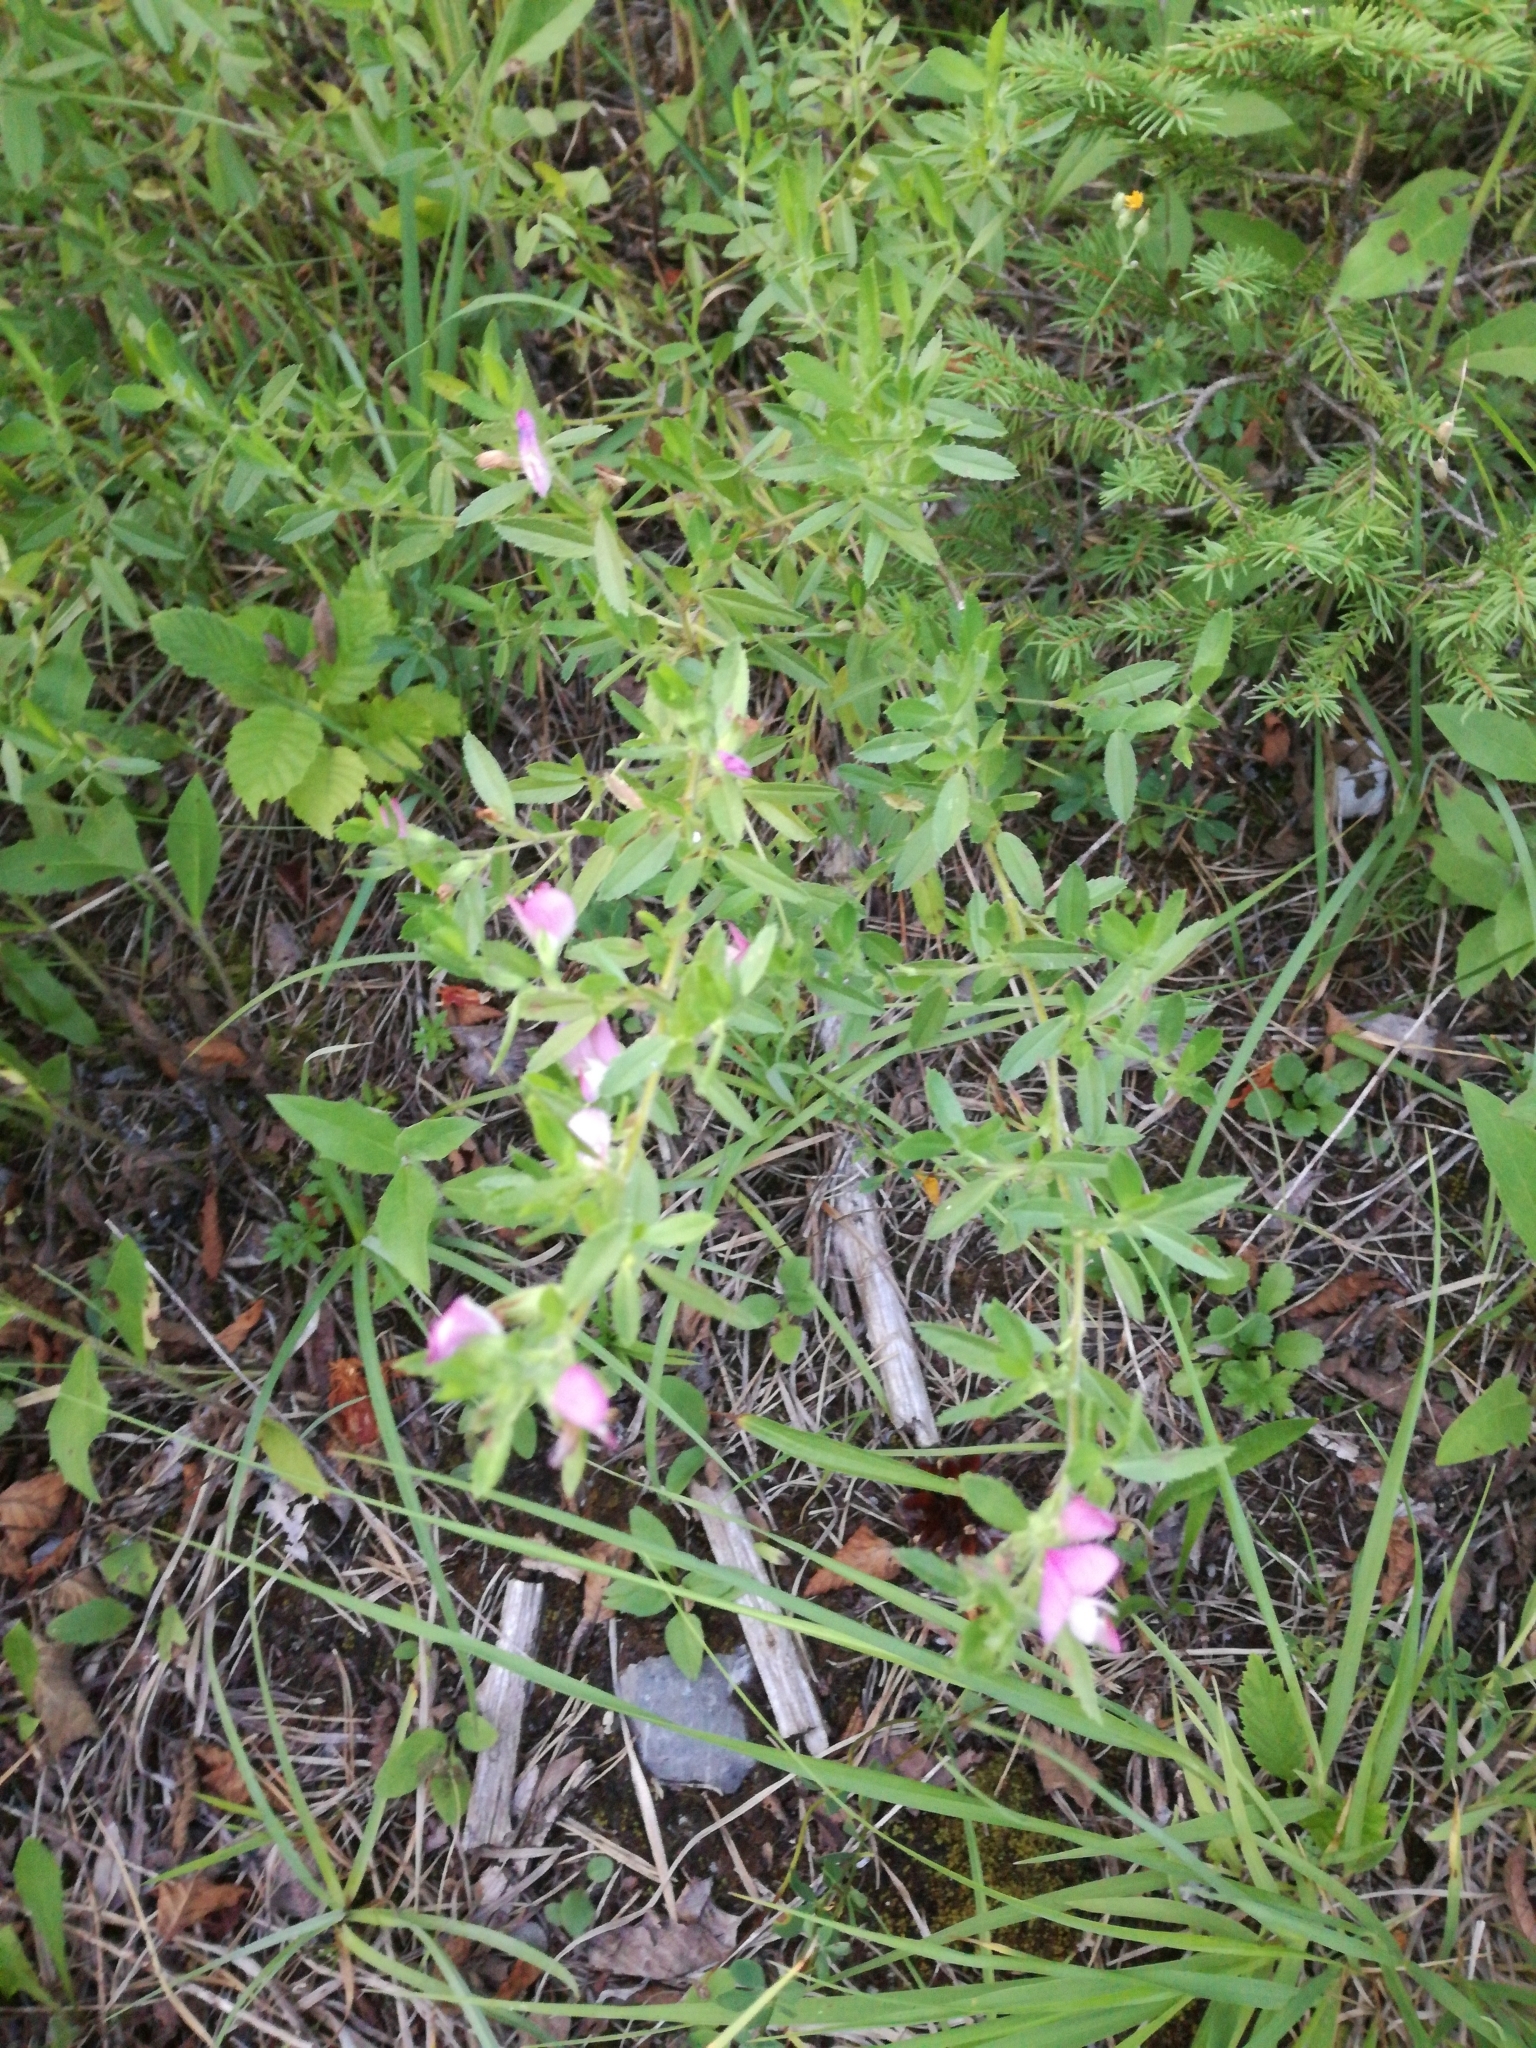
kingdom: Plantae
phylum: Tracheophyta
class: Magnoliopsida
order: Fabales
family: Fabaceae
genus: Ononis
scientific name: Ononis spinosa
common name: Spiny restharrow
